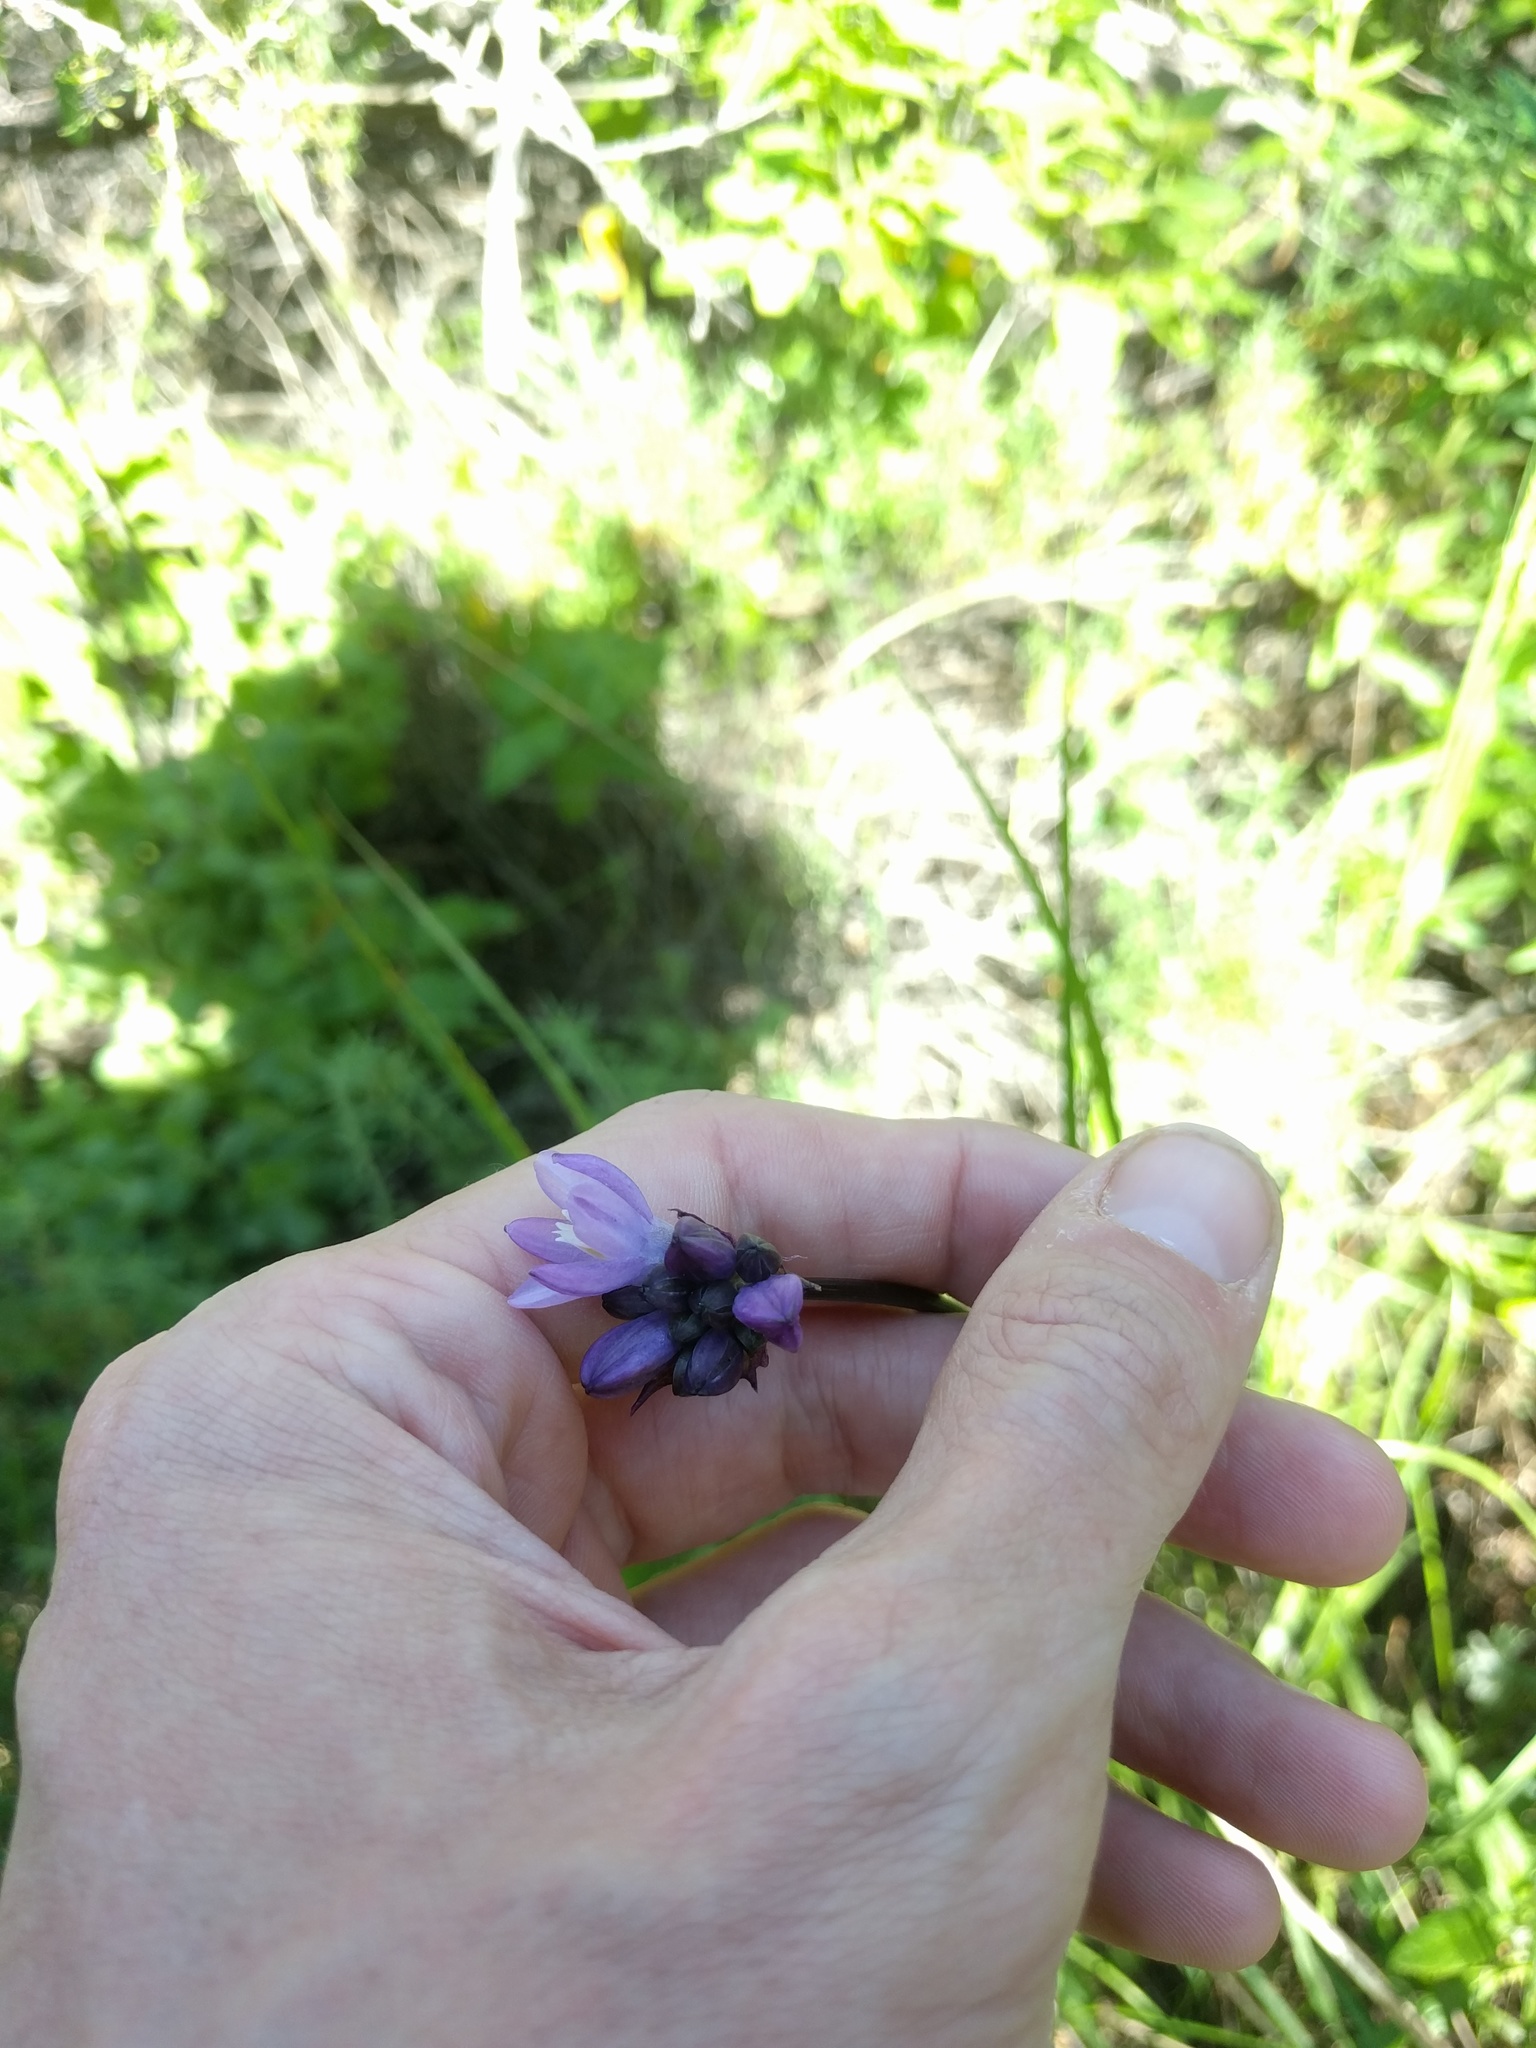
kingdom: Plantae
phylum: Tracheophyta
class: Liliopsida
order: Asparagales
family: Asparagaceae
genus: Dipterostemon
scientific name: Dipterostemon capitatus
